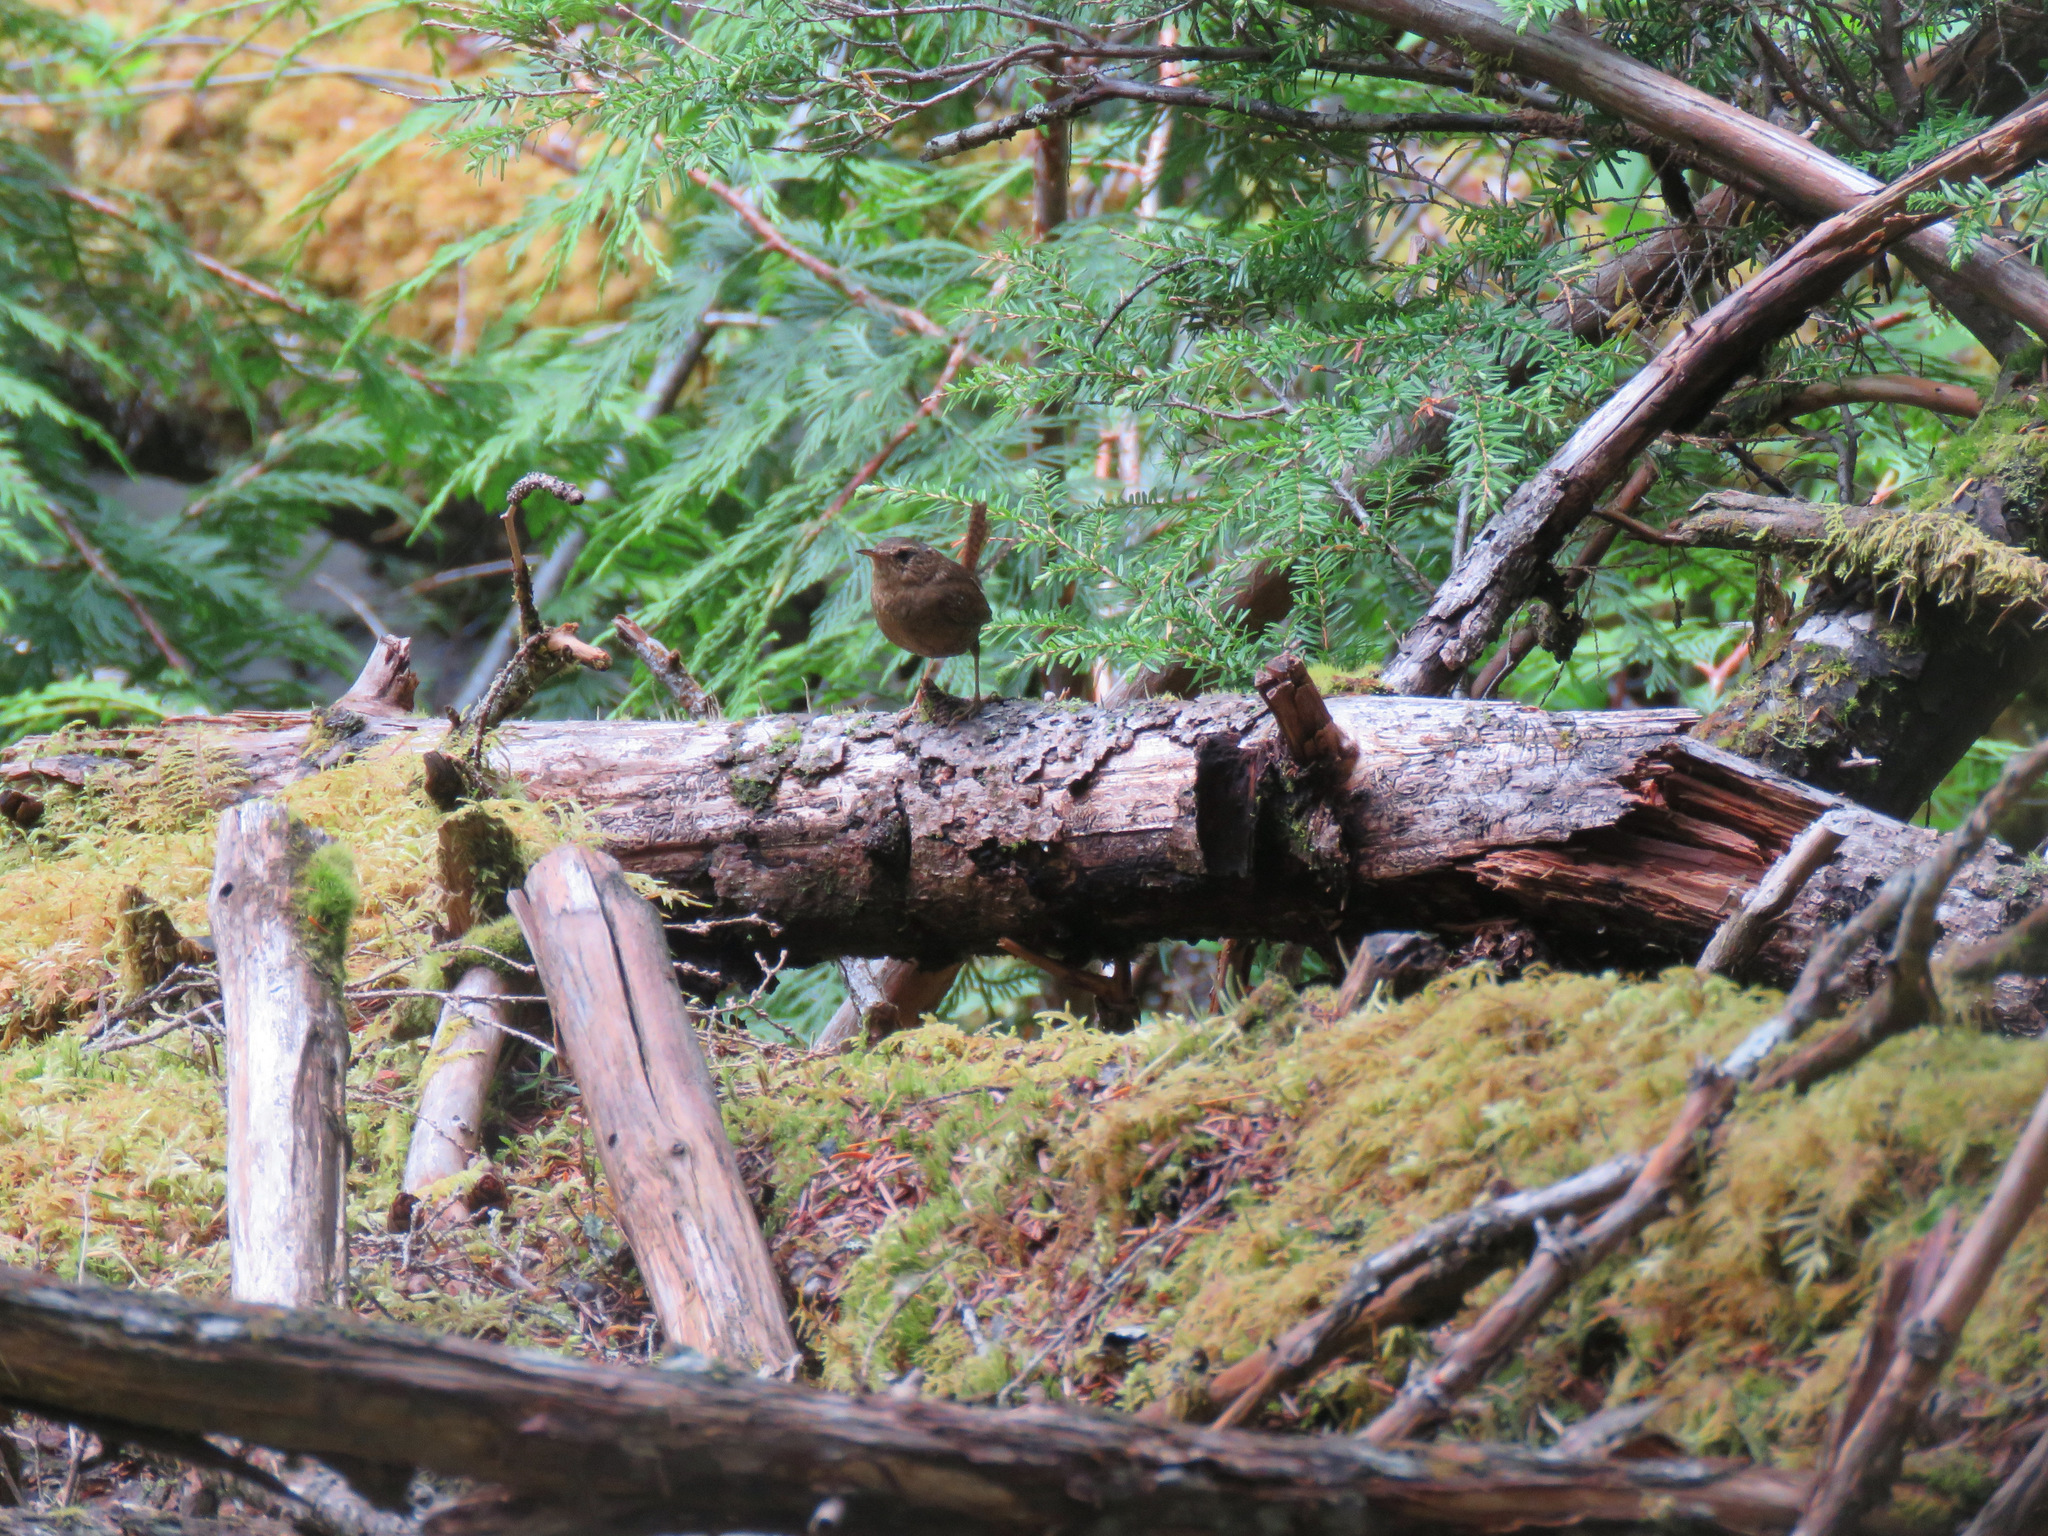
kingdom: Animalia
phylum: Chordata
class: Aves
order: Passeriformes
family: Troglodytidae
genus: Troglodytes
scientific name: Troglodytes pacificus
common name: Pacific wren
